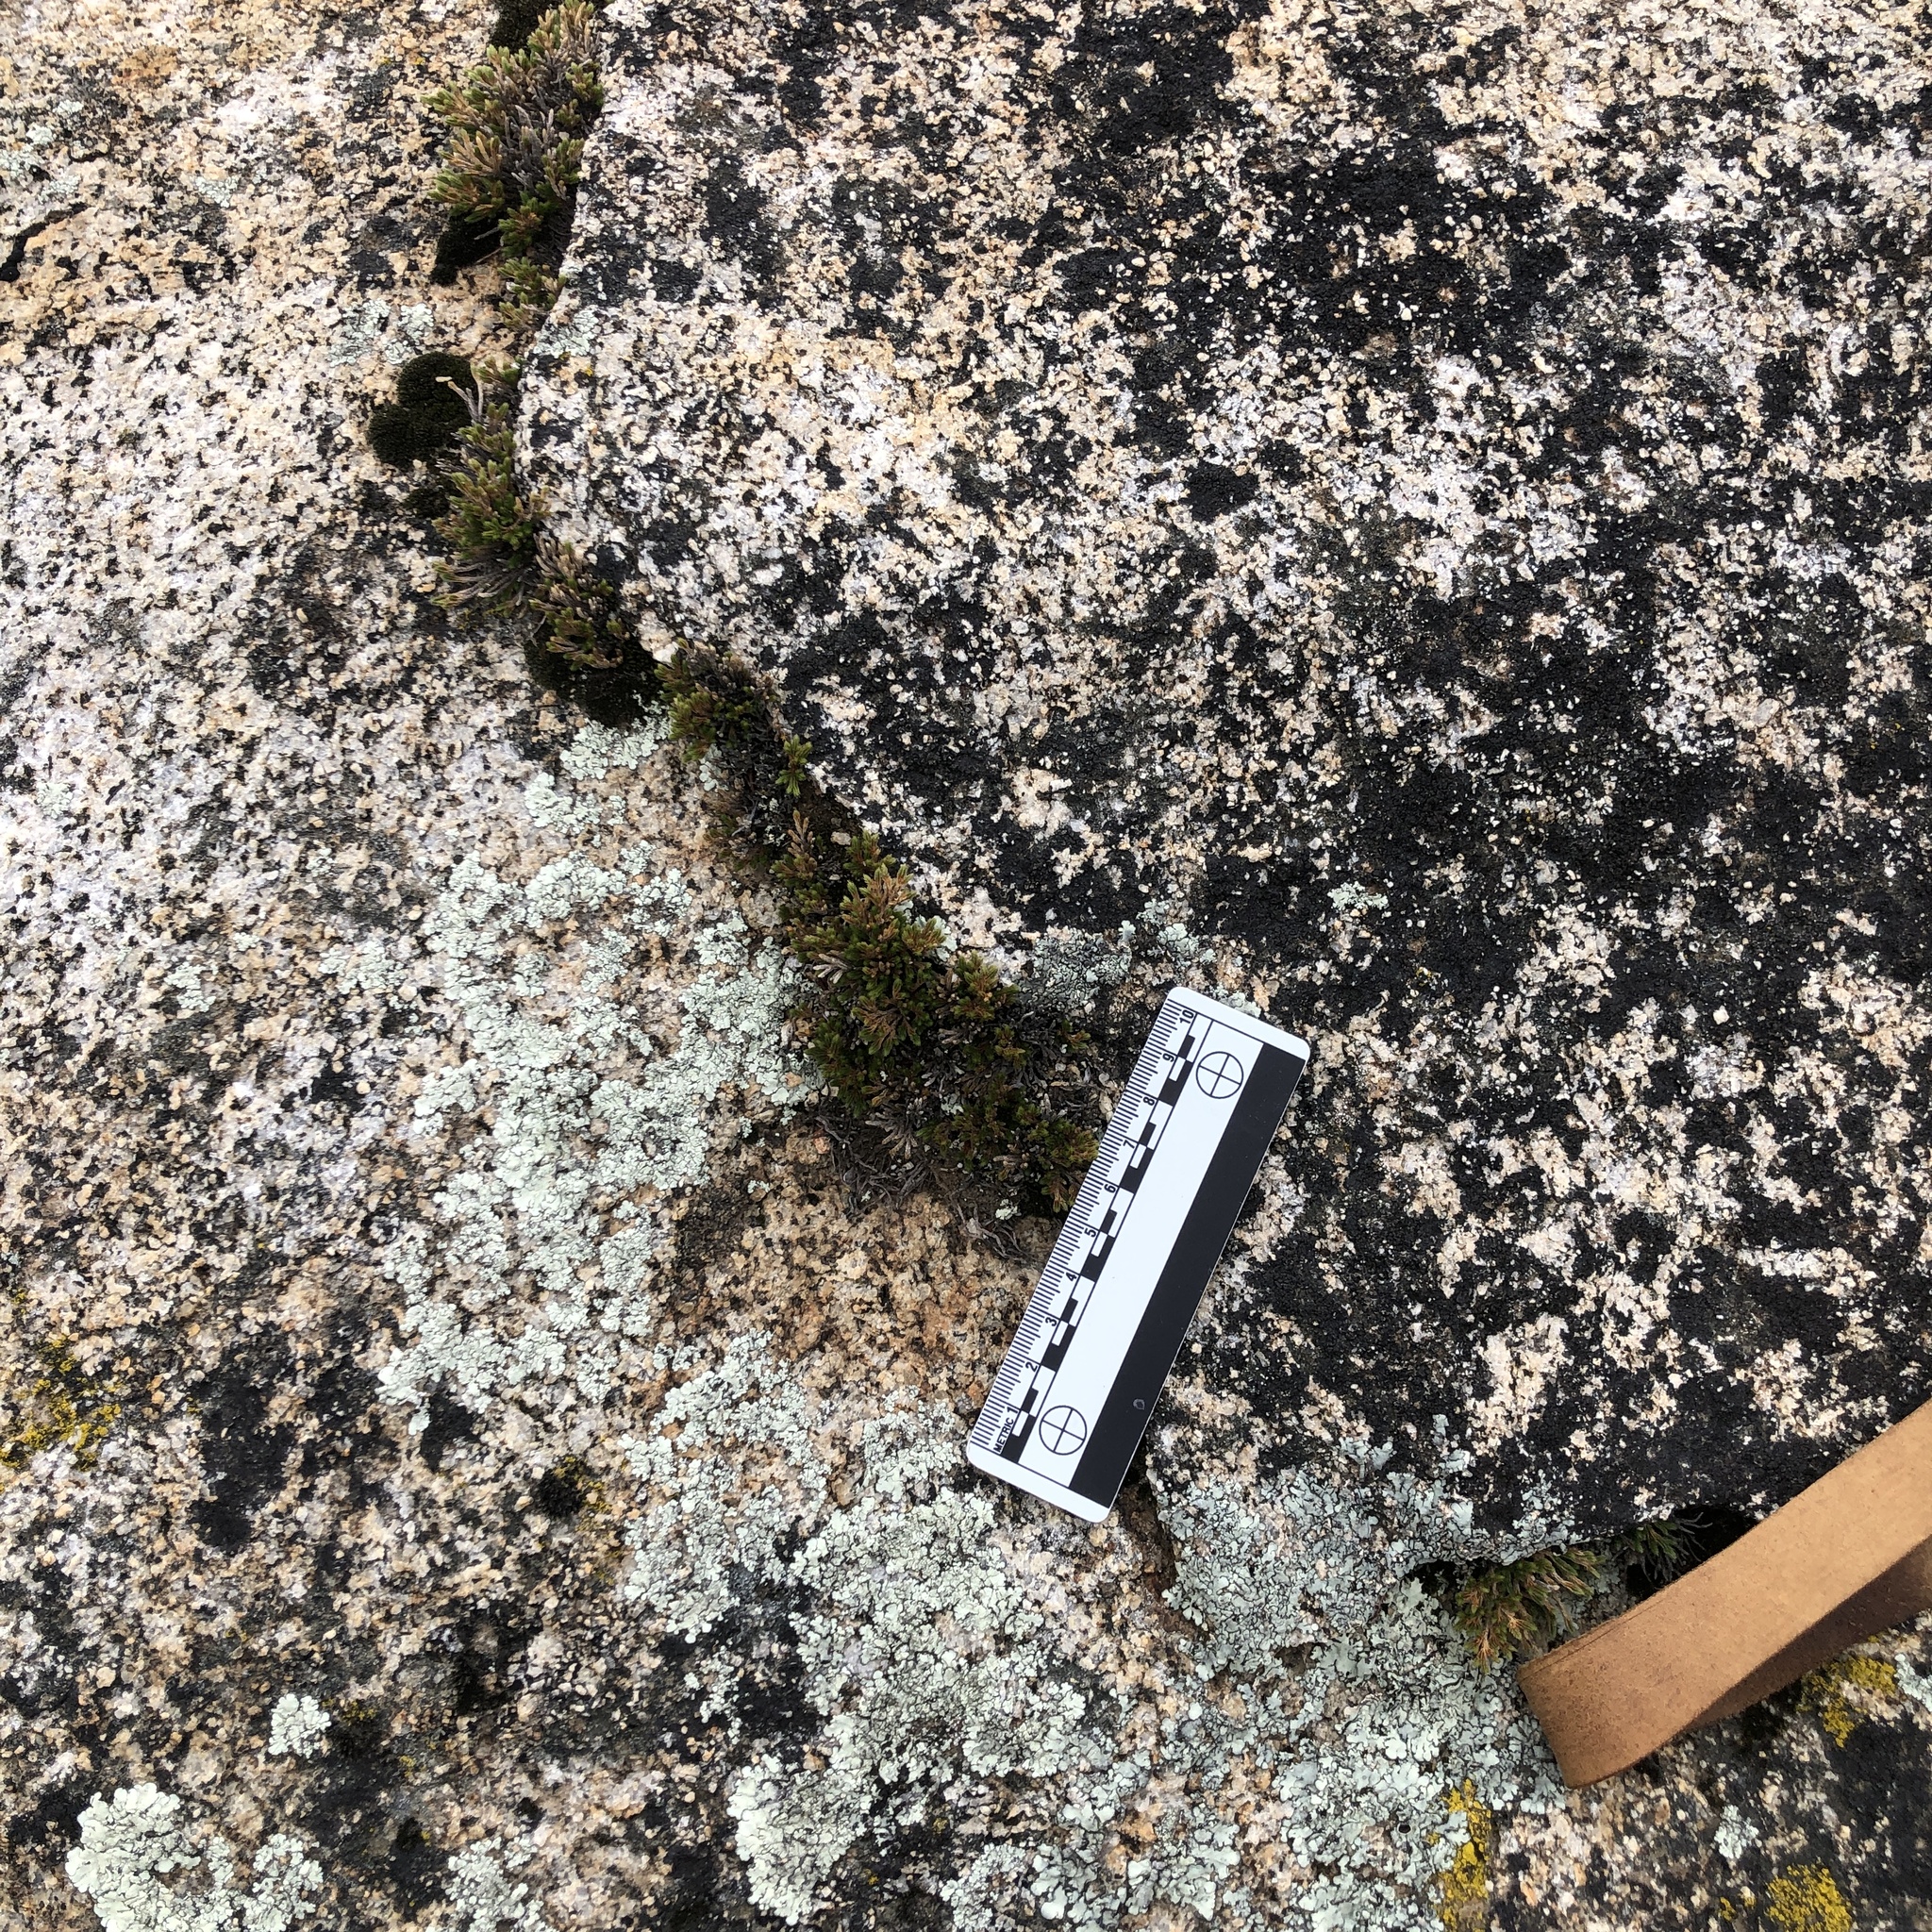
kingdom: Plantae
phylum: Tracheophyta
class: Lycopodiopsida
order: Selaginellales
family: Selaginellaceae
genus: Selaginella
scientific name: Selaginella bigelovii
